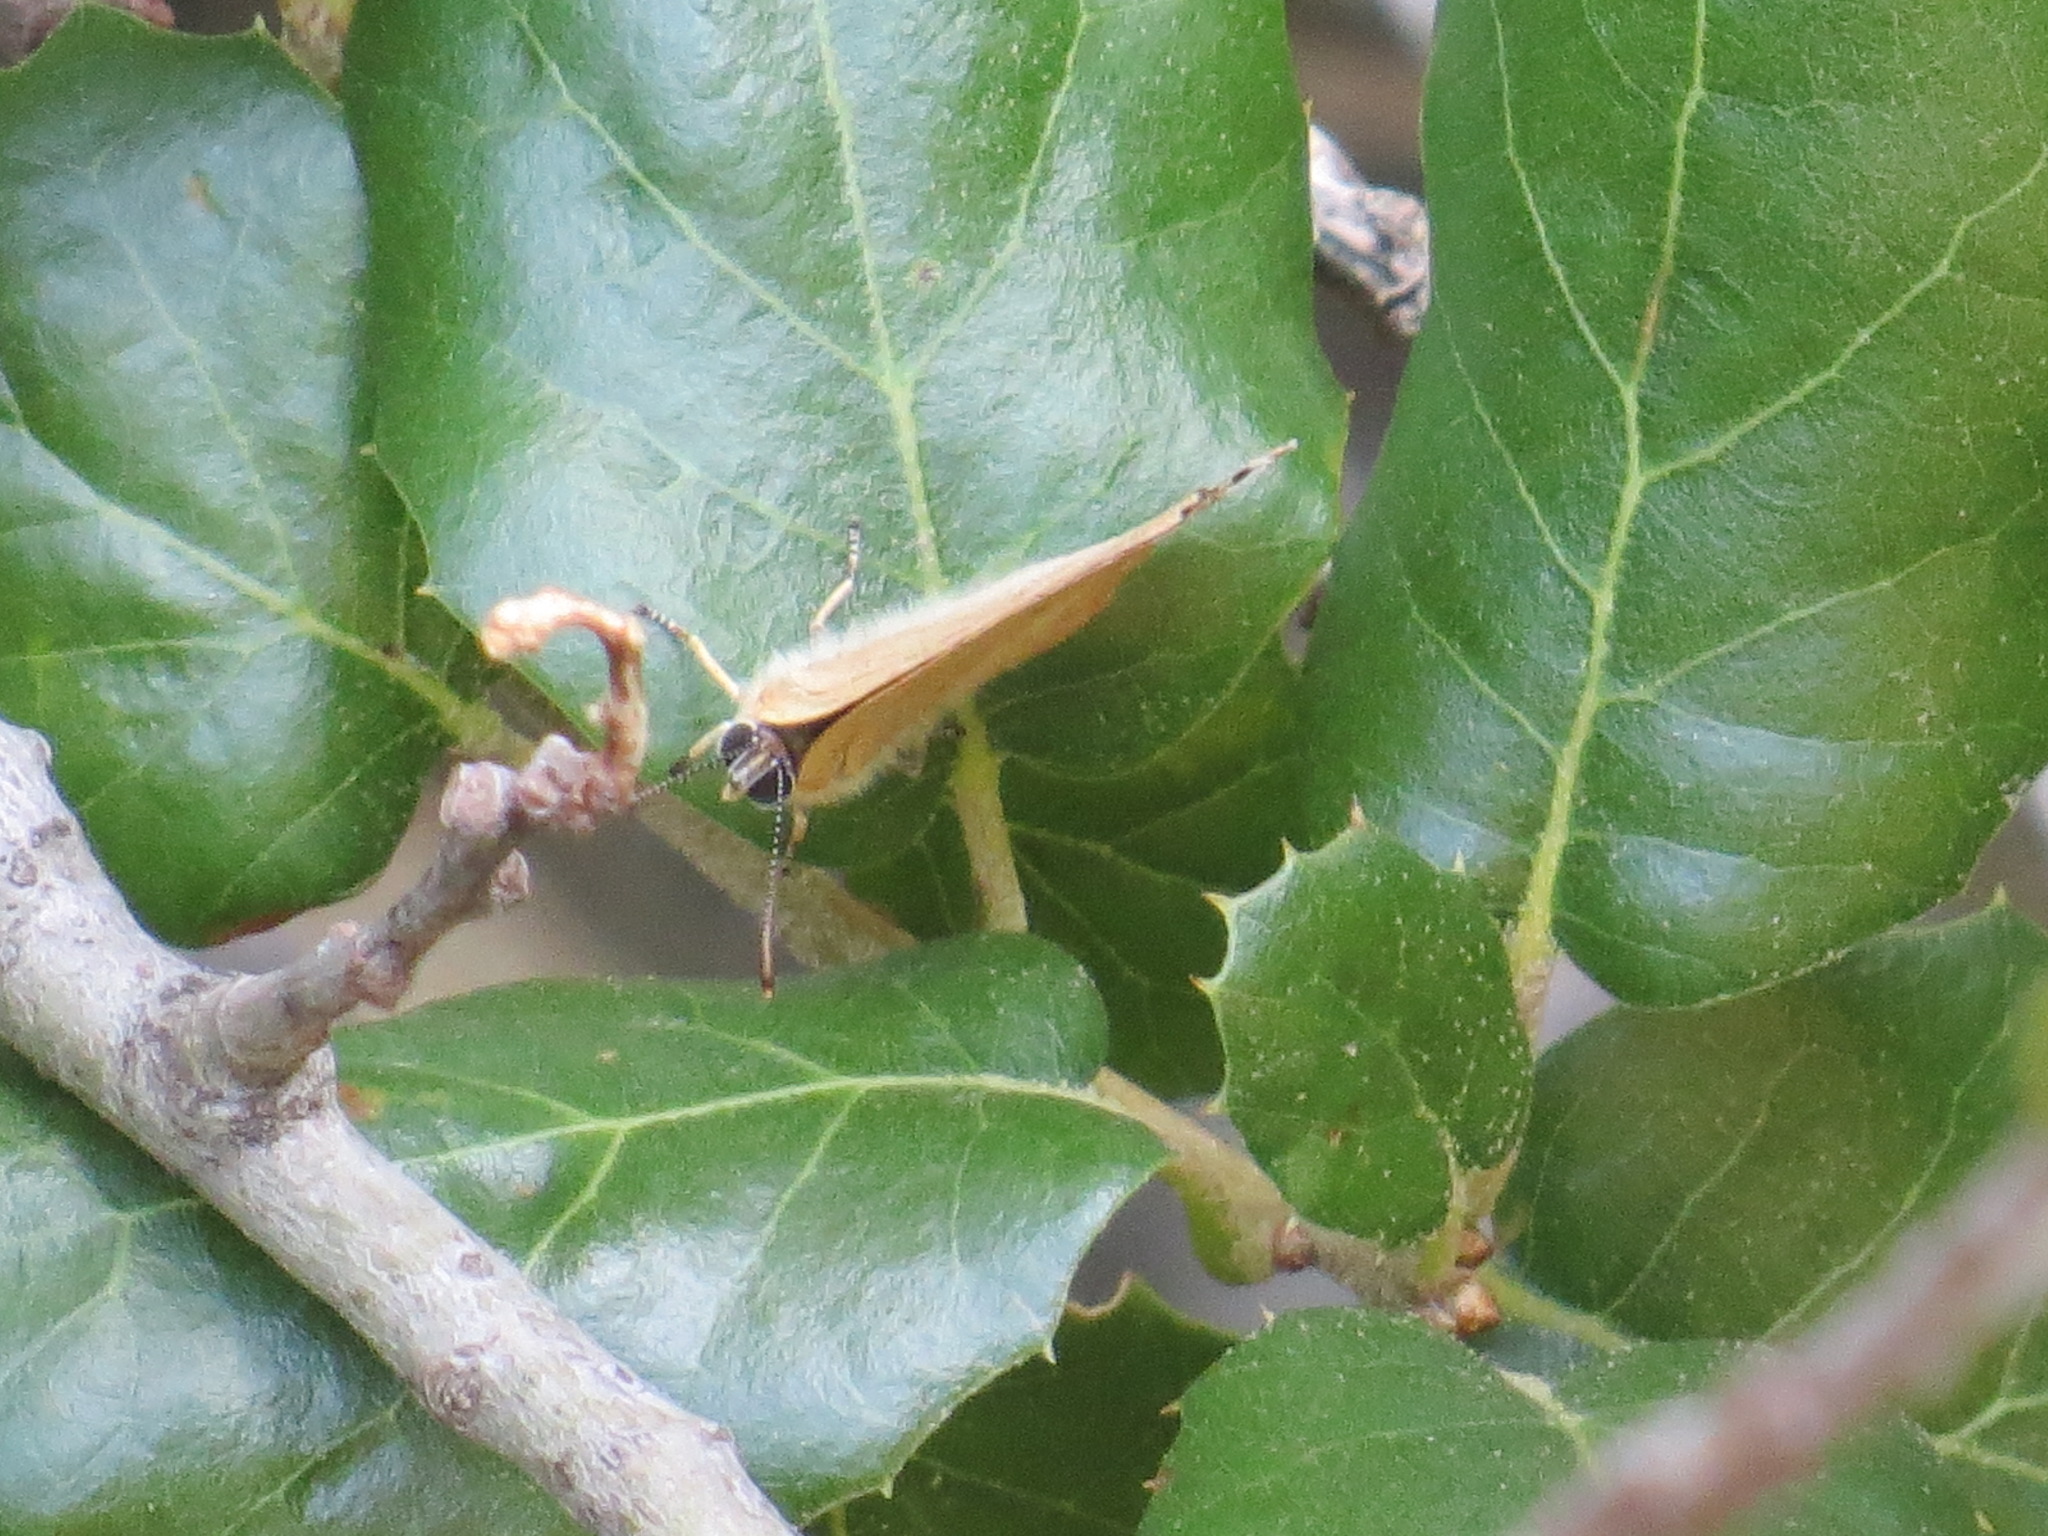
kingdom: Animalia
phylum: Arthropoda
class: Insecta
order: Lepidoptera
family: Lycaenidae
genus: Habrodais
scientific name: Habrodais grunus
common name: Golden hairstreak
